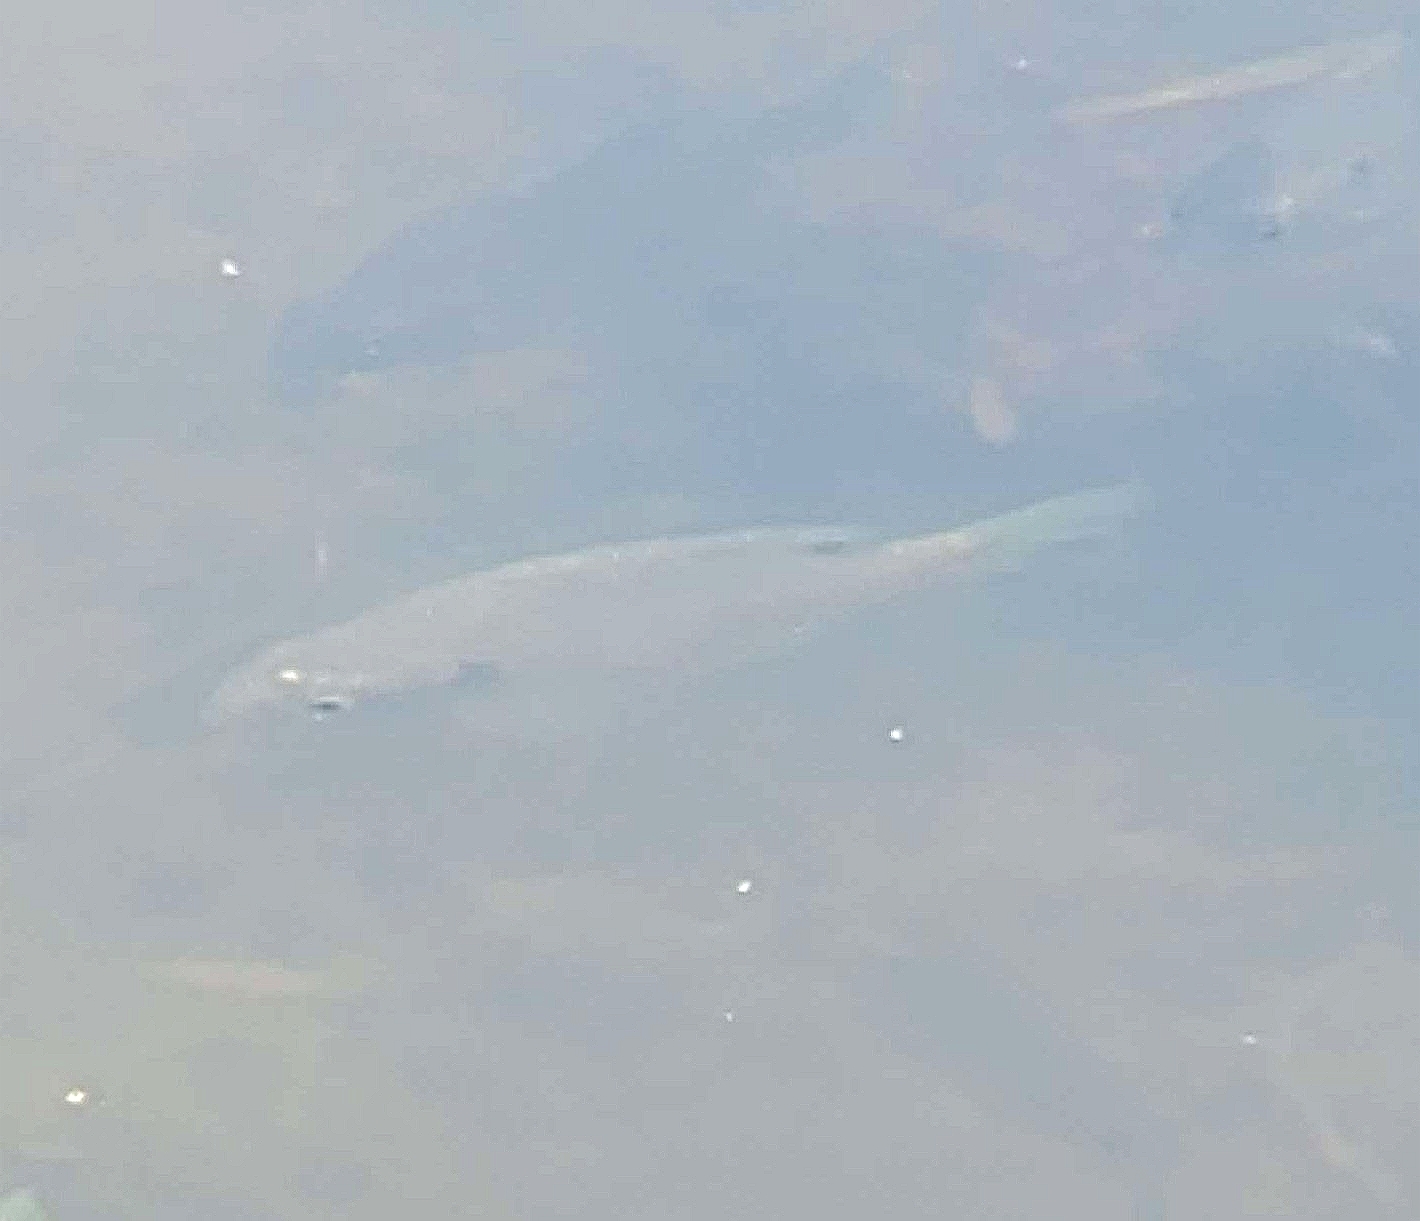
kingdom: Animalia
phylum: Chordata
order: Perciformes
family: Centrarchidae
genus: Lepomis
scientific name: Lepomis macrochirus
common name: Bluegill
